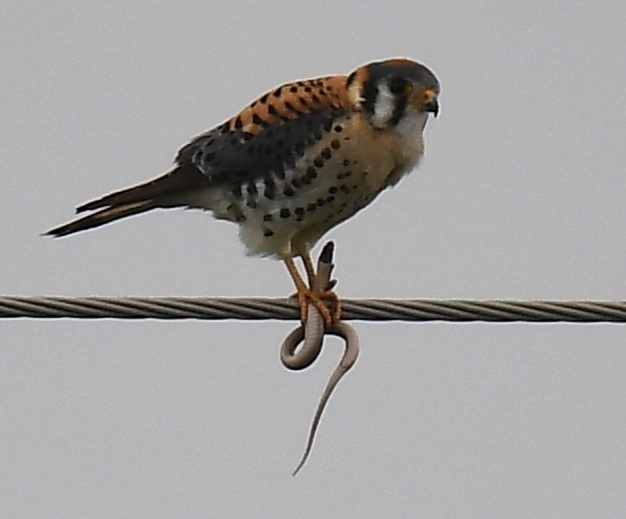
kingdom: Animalia
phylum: Chordata
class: Aves
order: Falconiformes
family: Falconidae
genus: Falco
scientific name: Falco sparverius
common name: American kestrel
